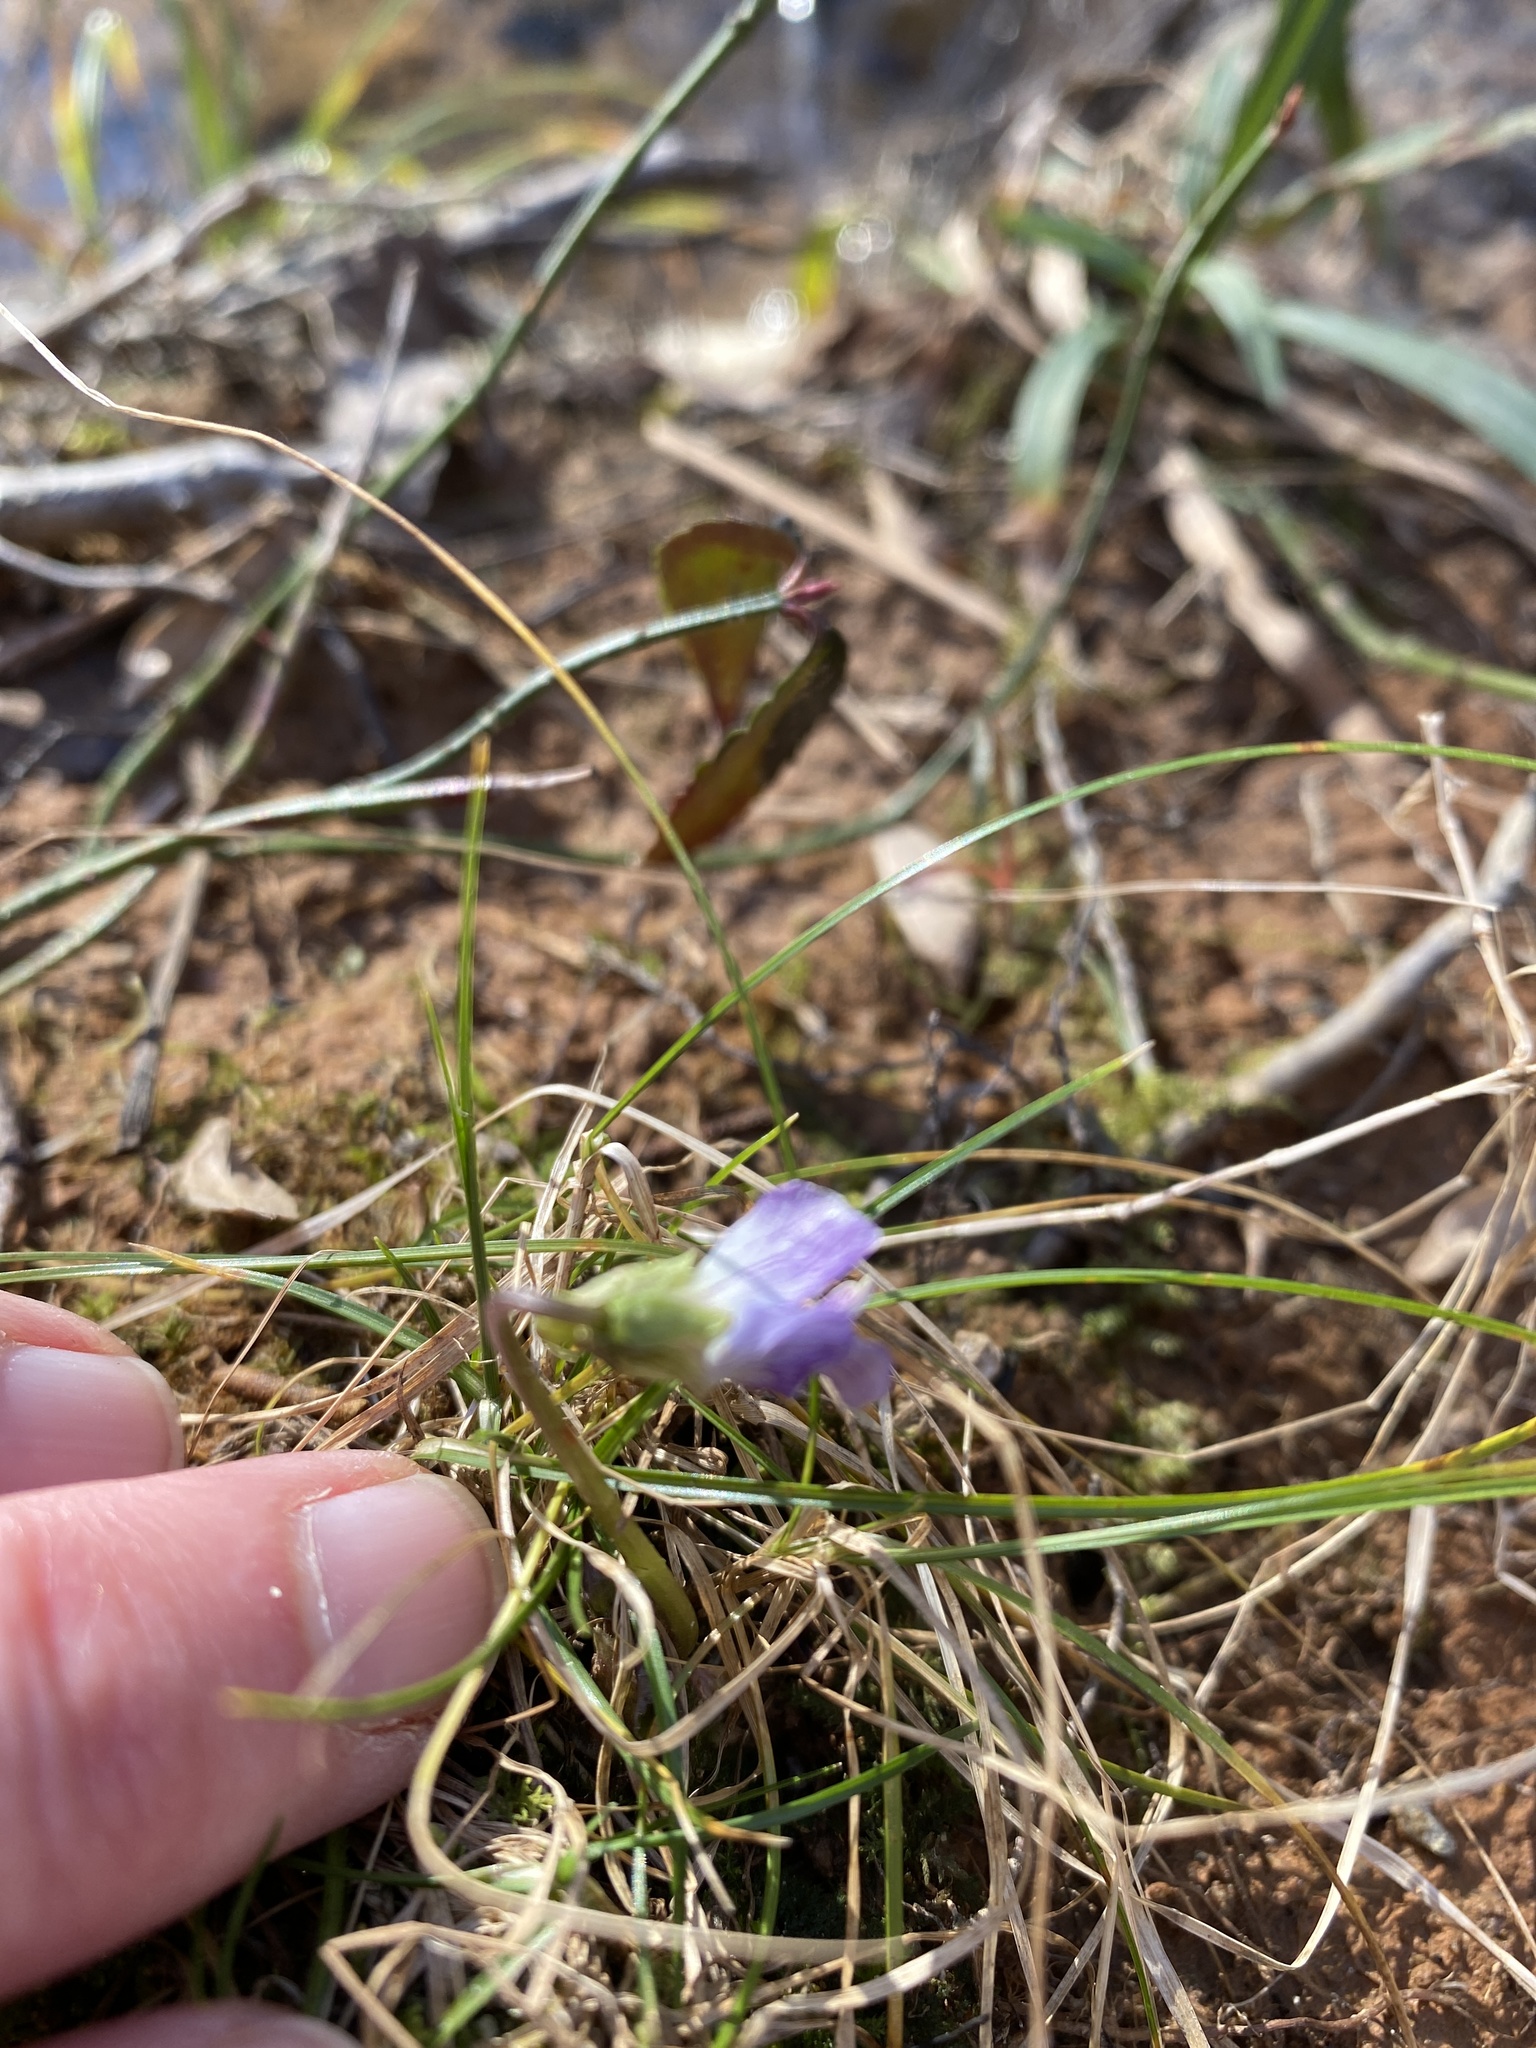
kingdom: Plantae
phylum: Tracheophyta
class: Magnoliopsida
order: Malpighiales
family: Violaceae
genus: Viola
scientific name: Viola sororia
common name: Dooryard violet
